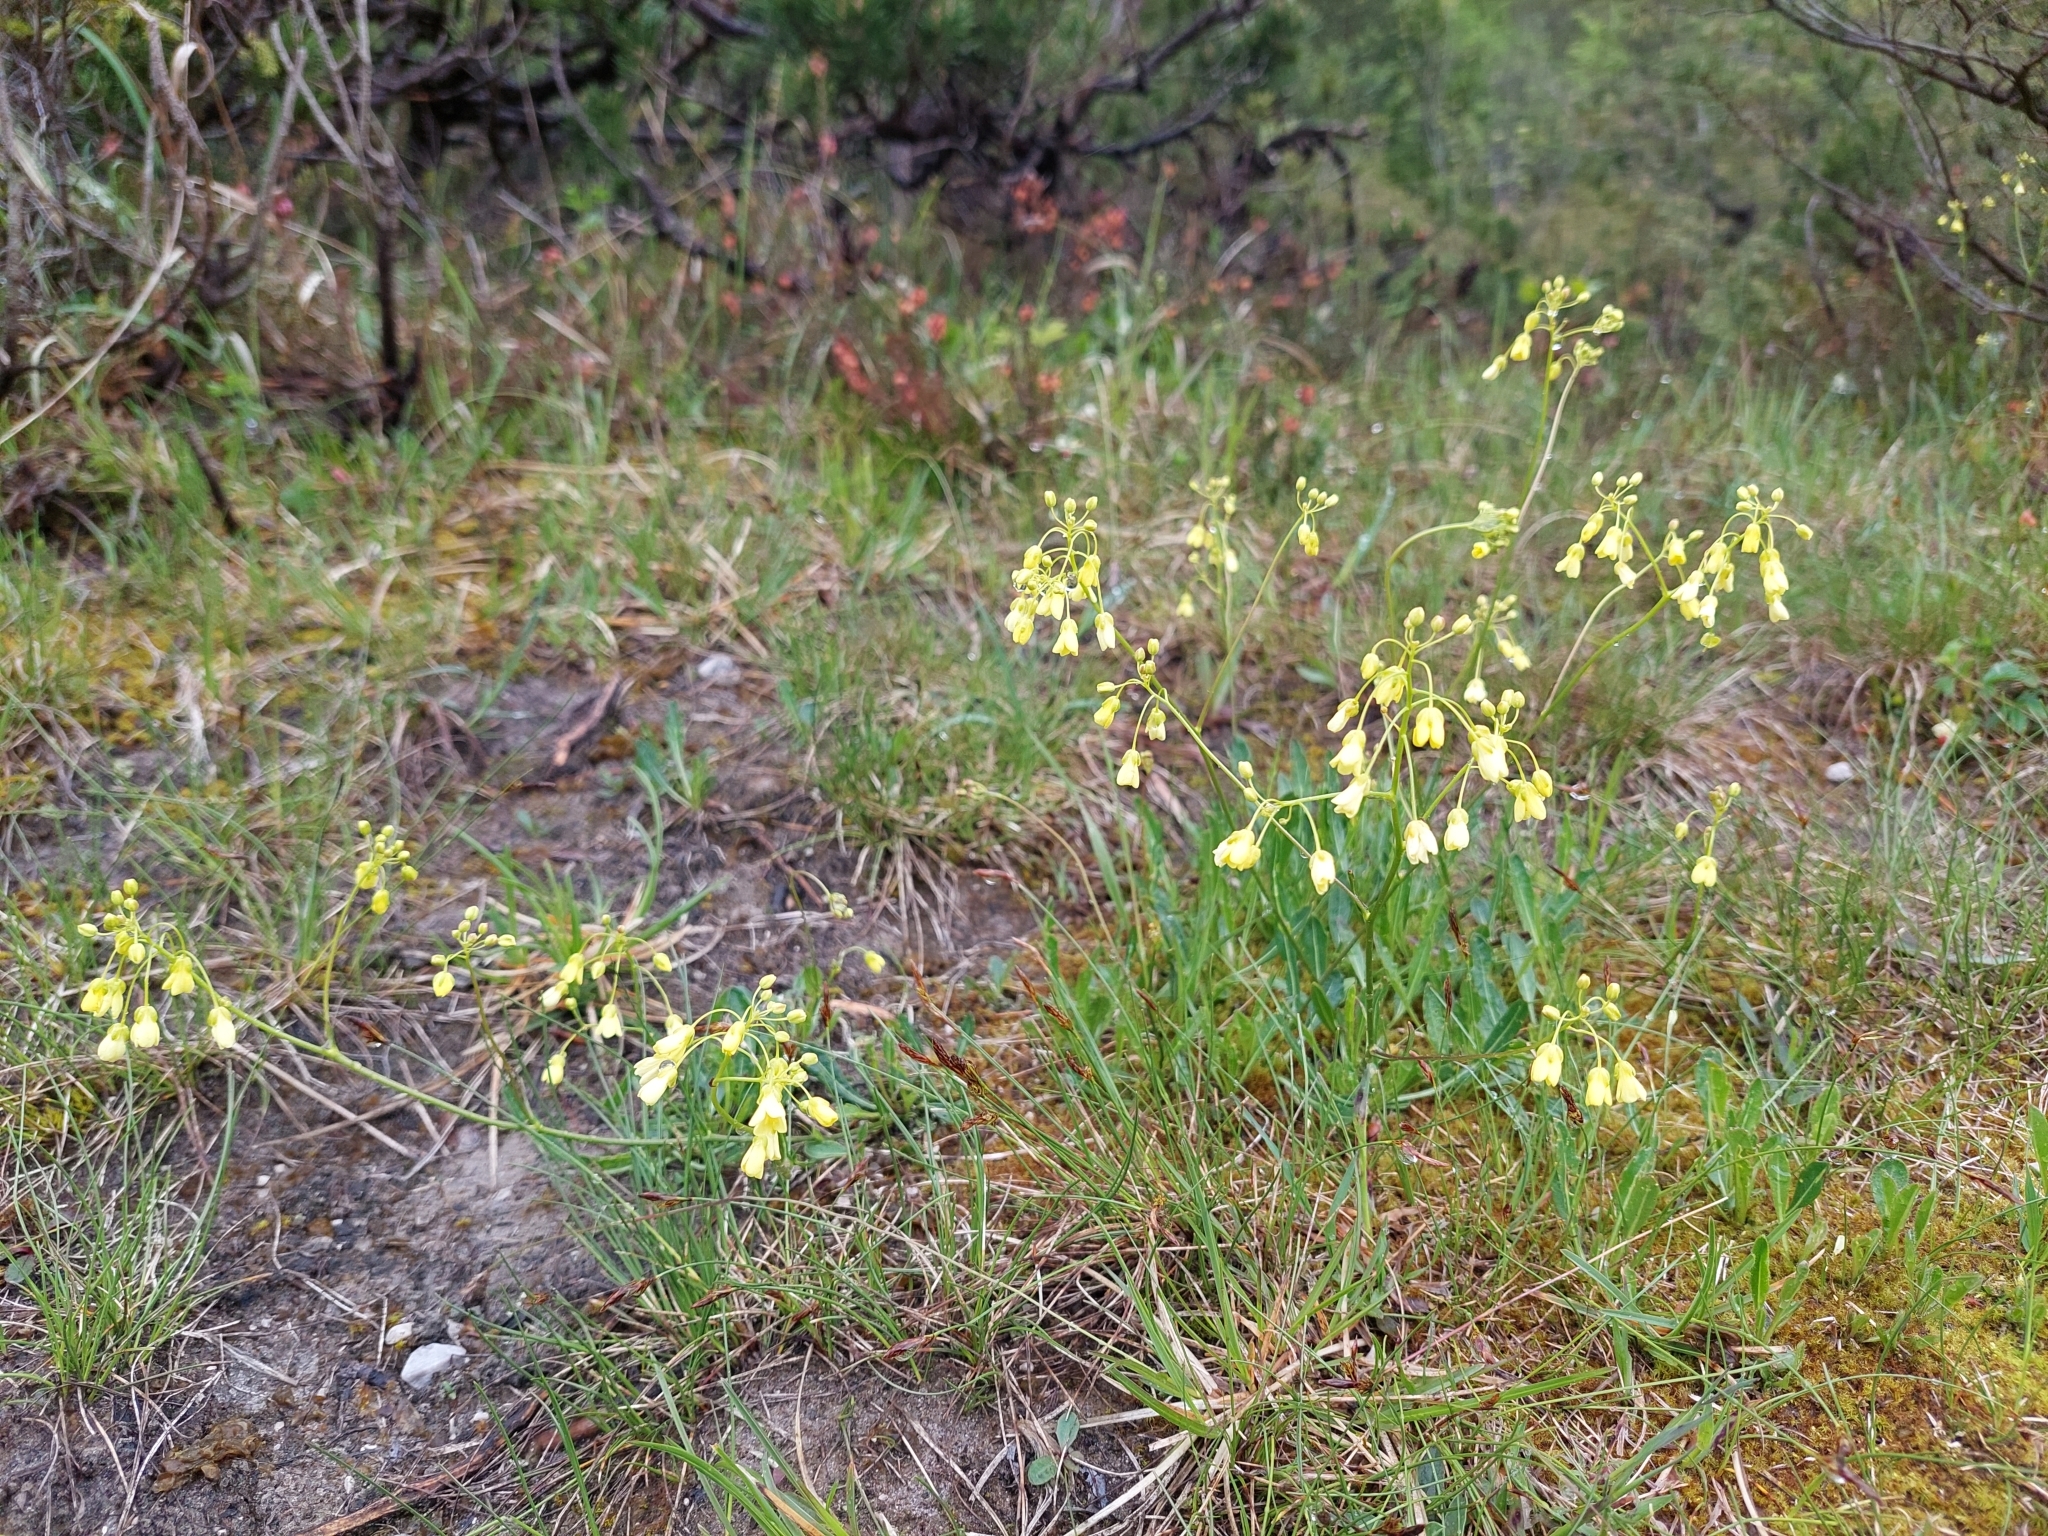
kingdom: Plantae
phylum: Tracheophyta
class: Magnoliopsida
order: Brassicales
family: Brassicaceae
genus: Biscutella
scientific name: Biscutella laevigata
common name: Buckler mustard
